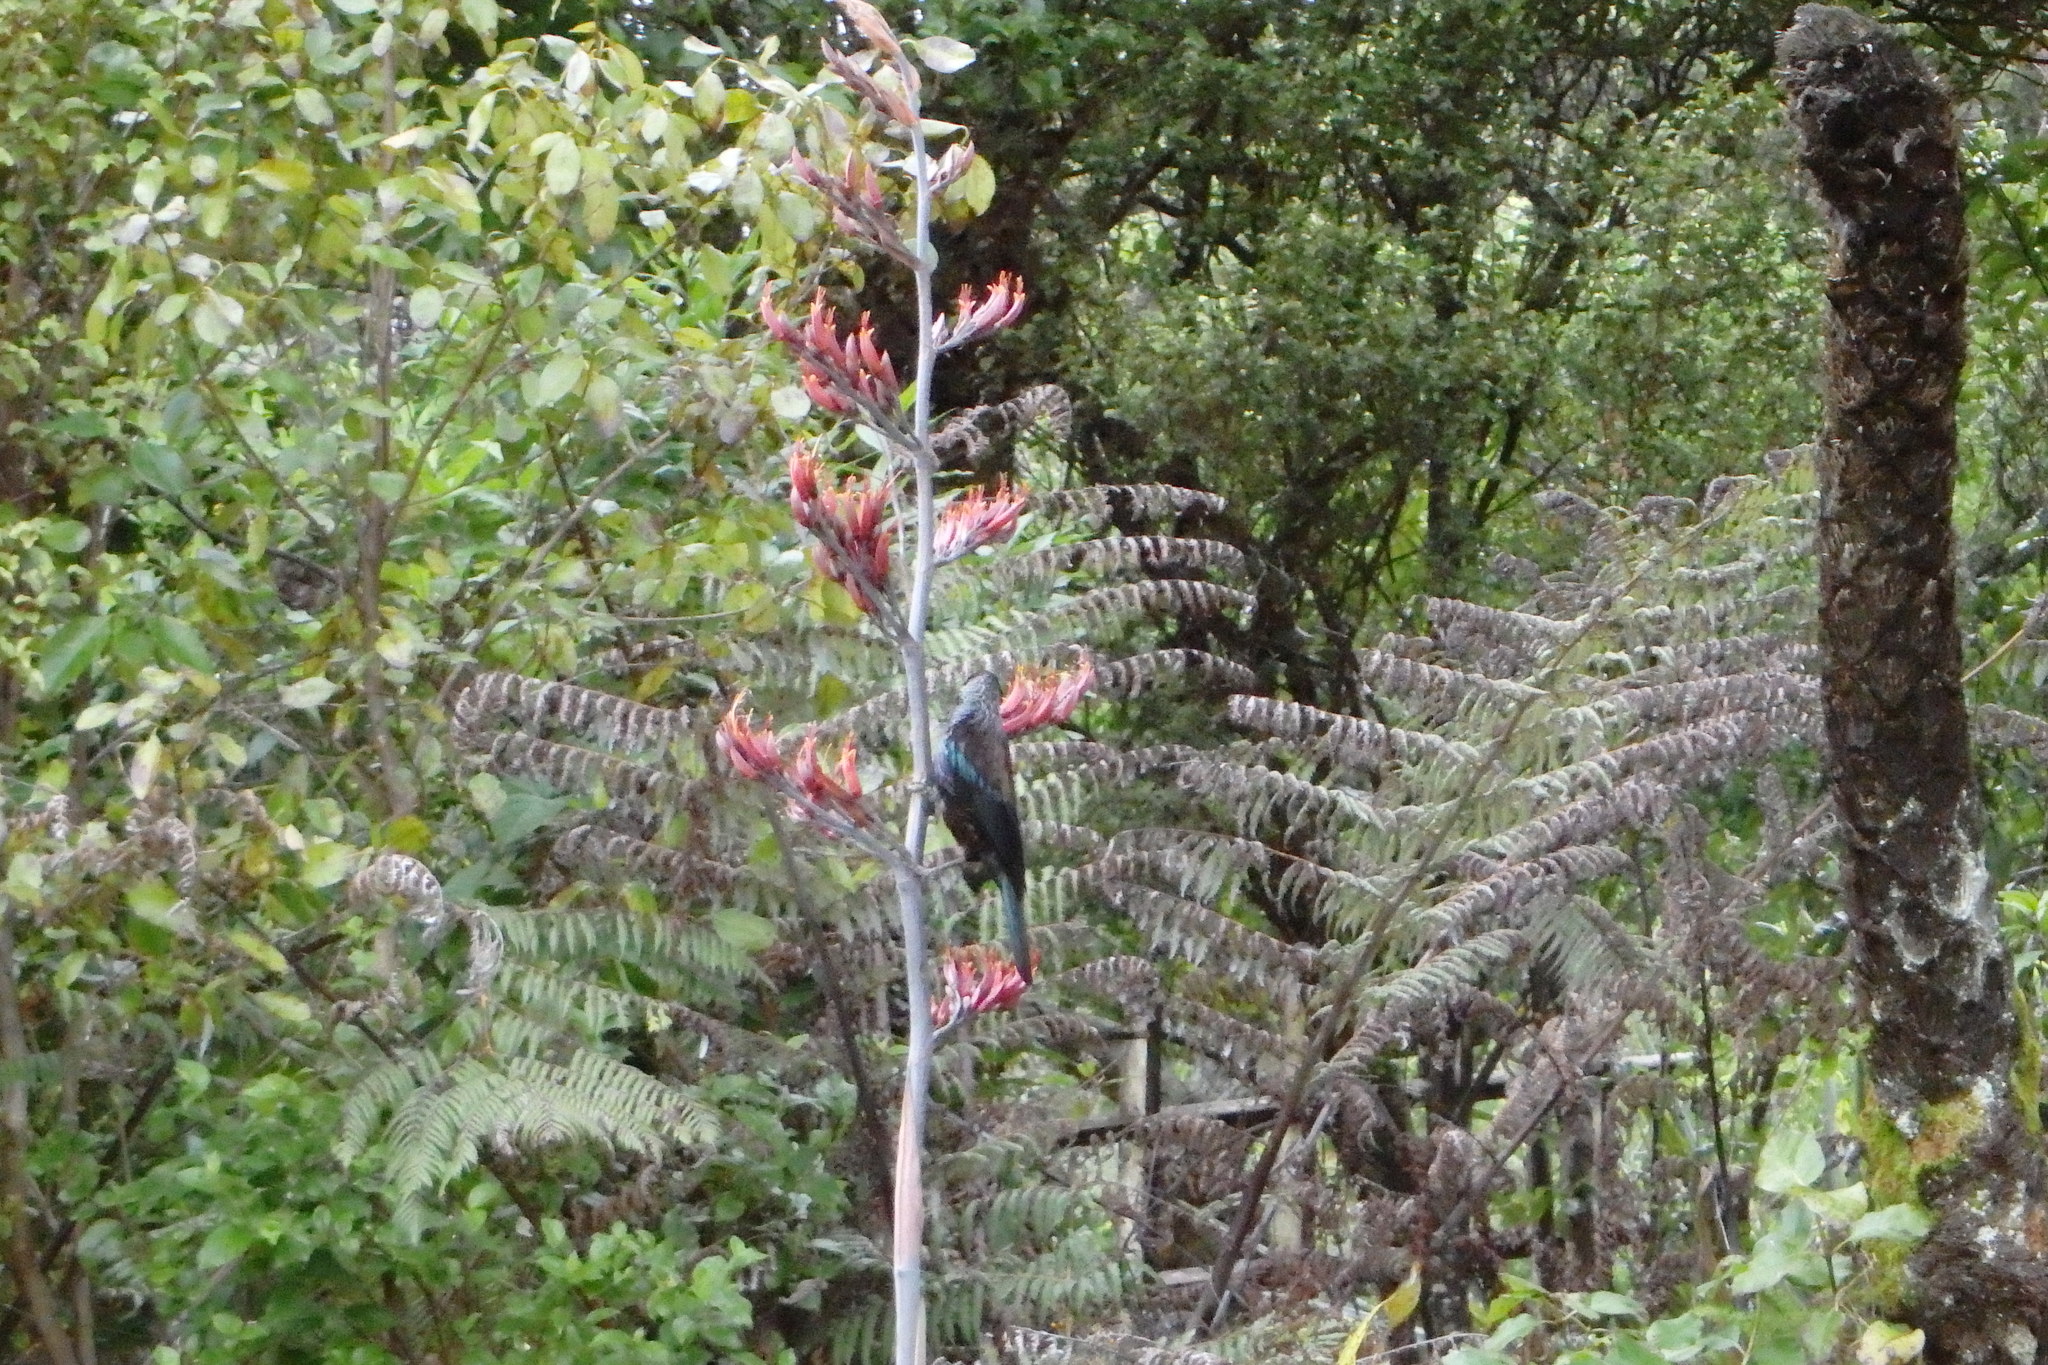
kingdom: Animalia
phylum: Chordata
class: Aves
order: Passeriformes
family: Meliphagidae
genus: Prosthemadera
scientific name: Prosthemadera novaeseelandiae
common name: Tui
